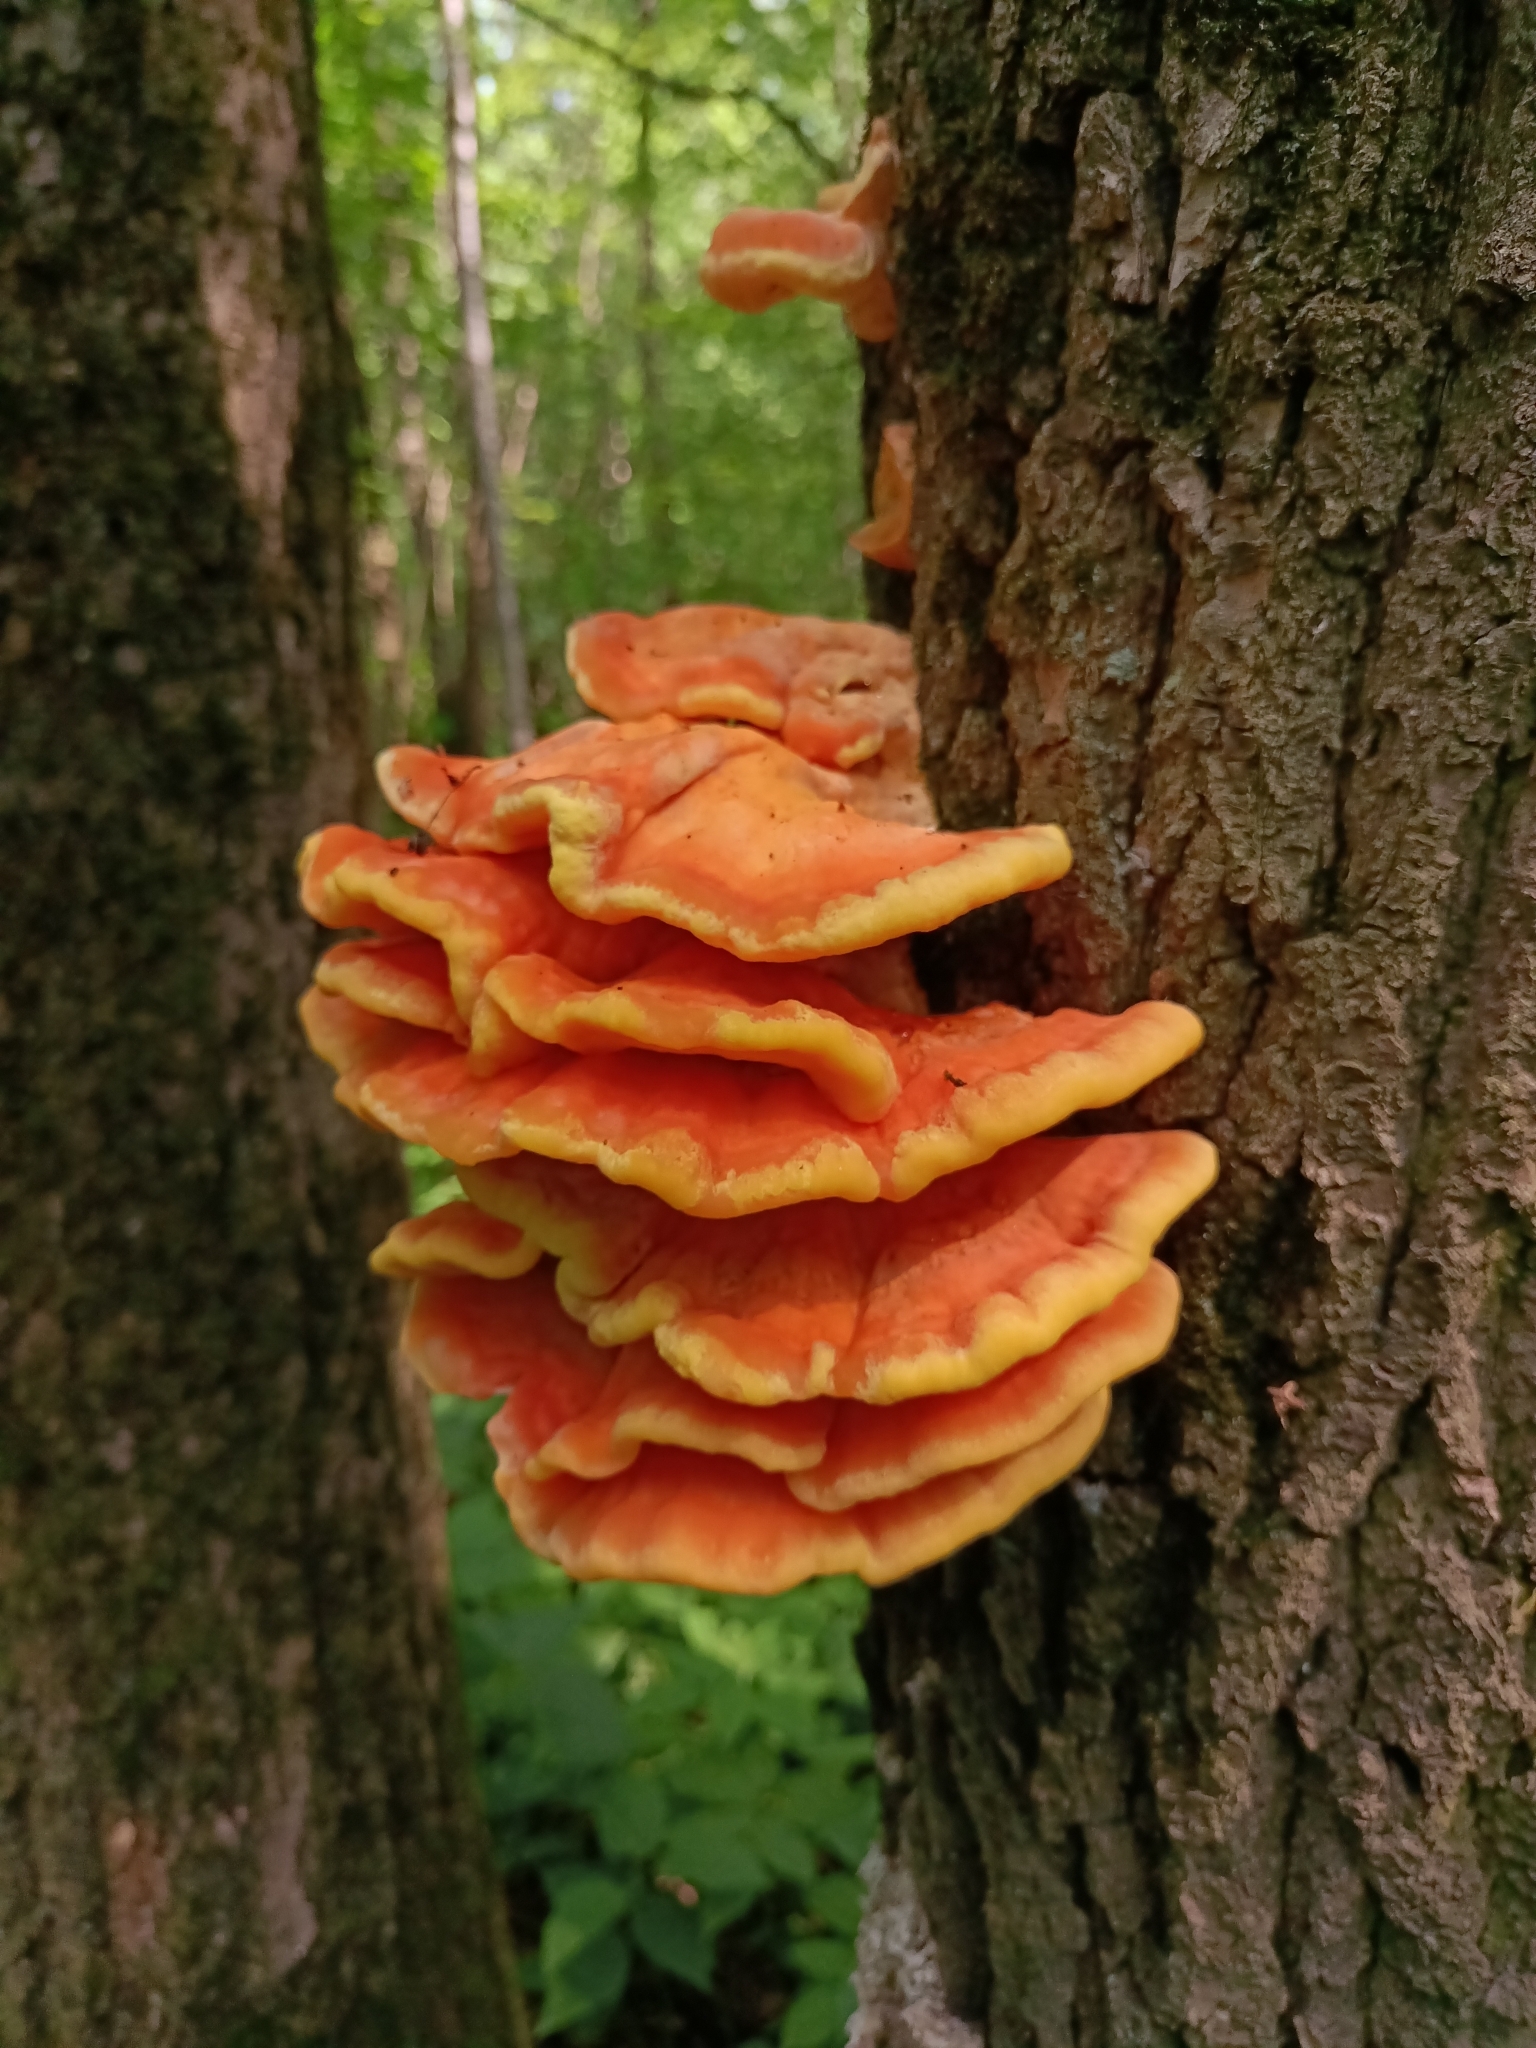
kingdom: Fungi
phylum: Basidiomycota
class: Agaricomycetes
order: Polyporales
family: Laetiporaceae
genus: Laetiporus
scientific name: Laetiporus sulphureus
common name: Chicken of the woods
